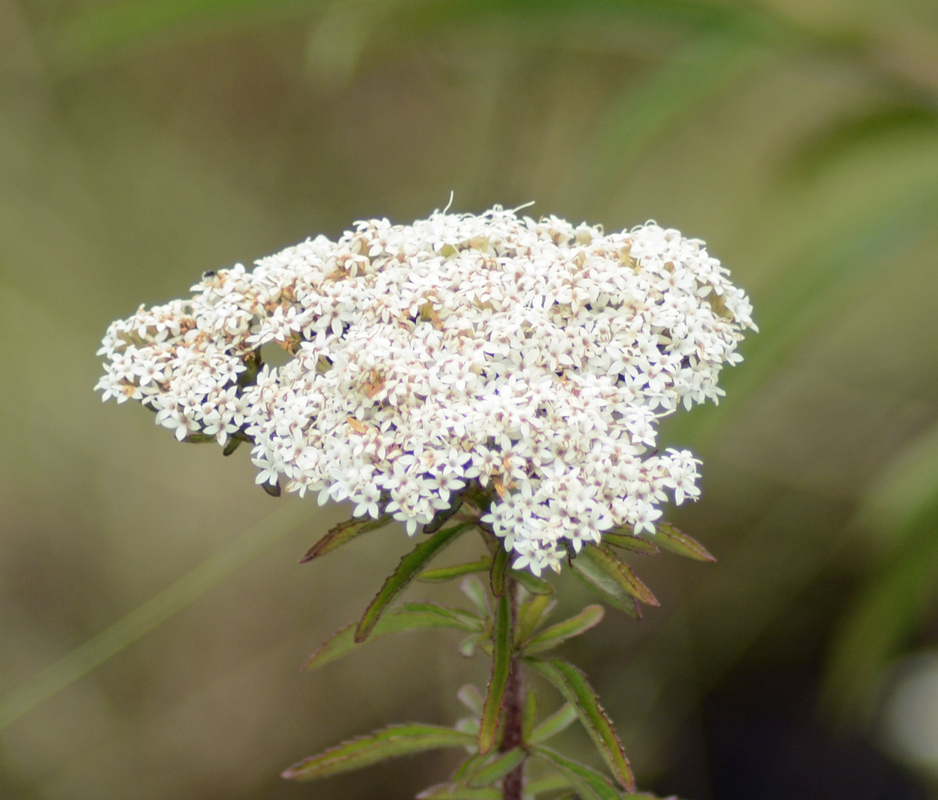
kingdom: Plantae
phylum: Tracheophyta
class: Magnoliopsida
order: Asterales
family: Asteraceae
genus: Stevia
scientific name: Stevia serrata
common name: Sawtooth candyleaf
